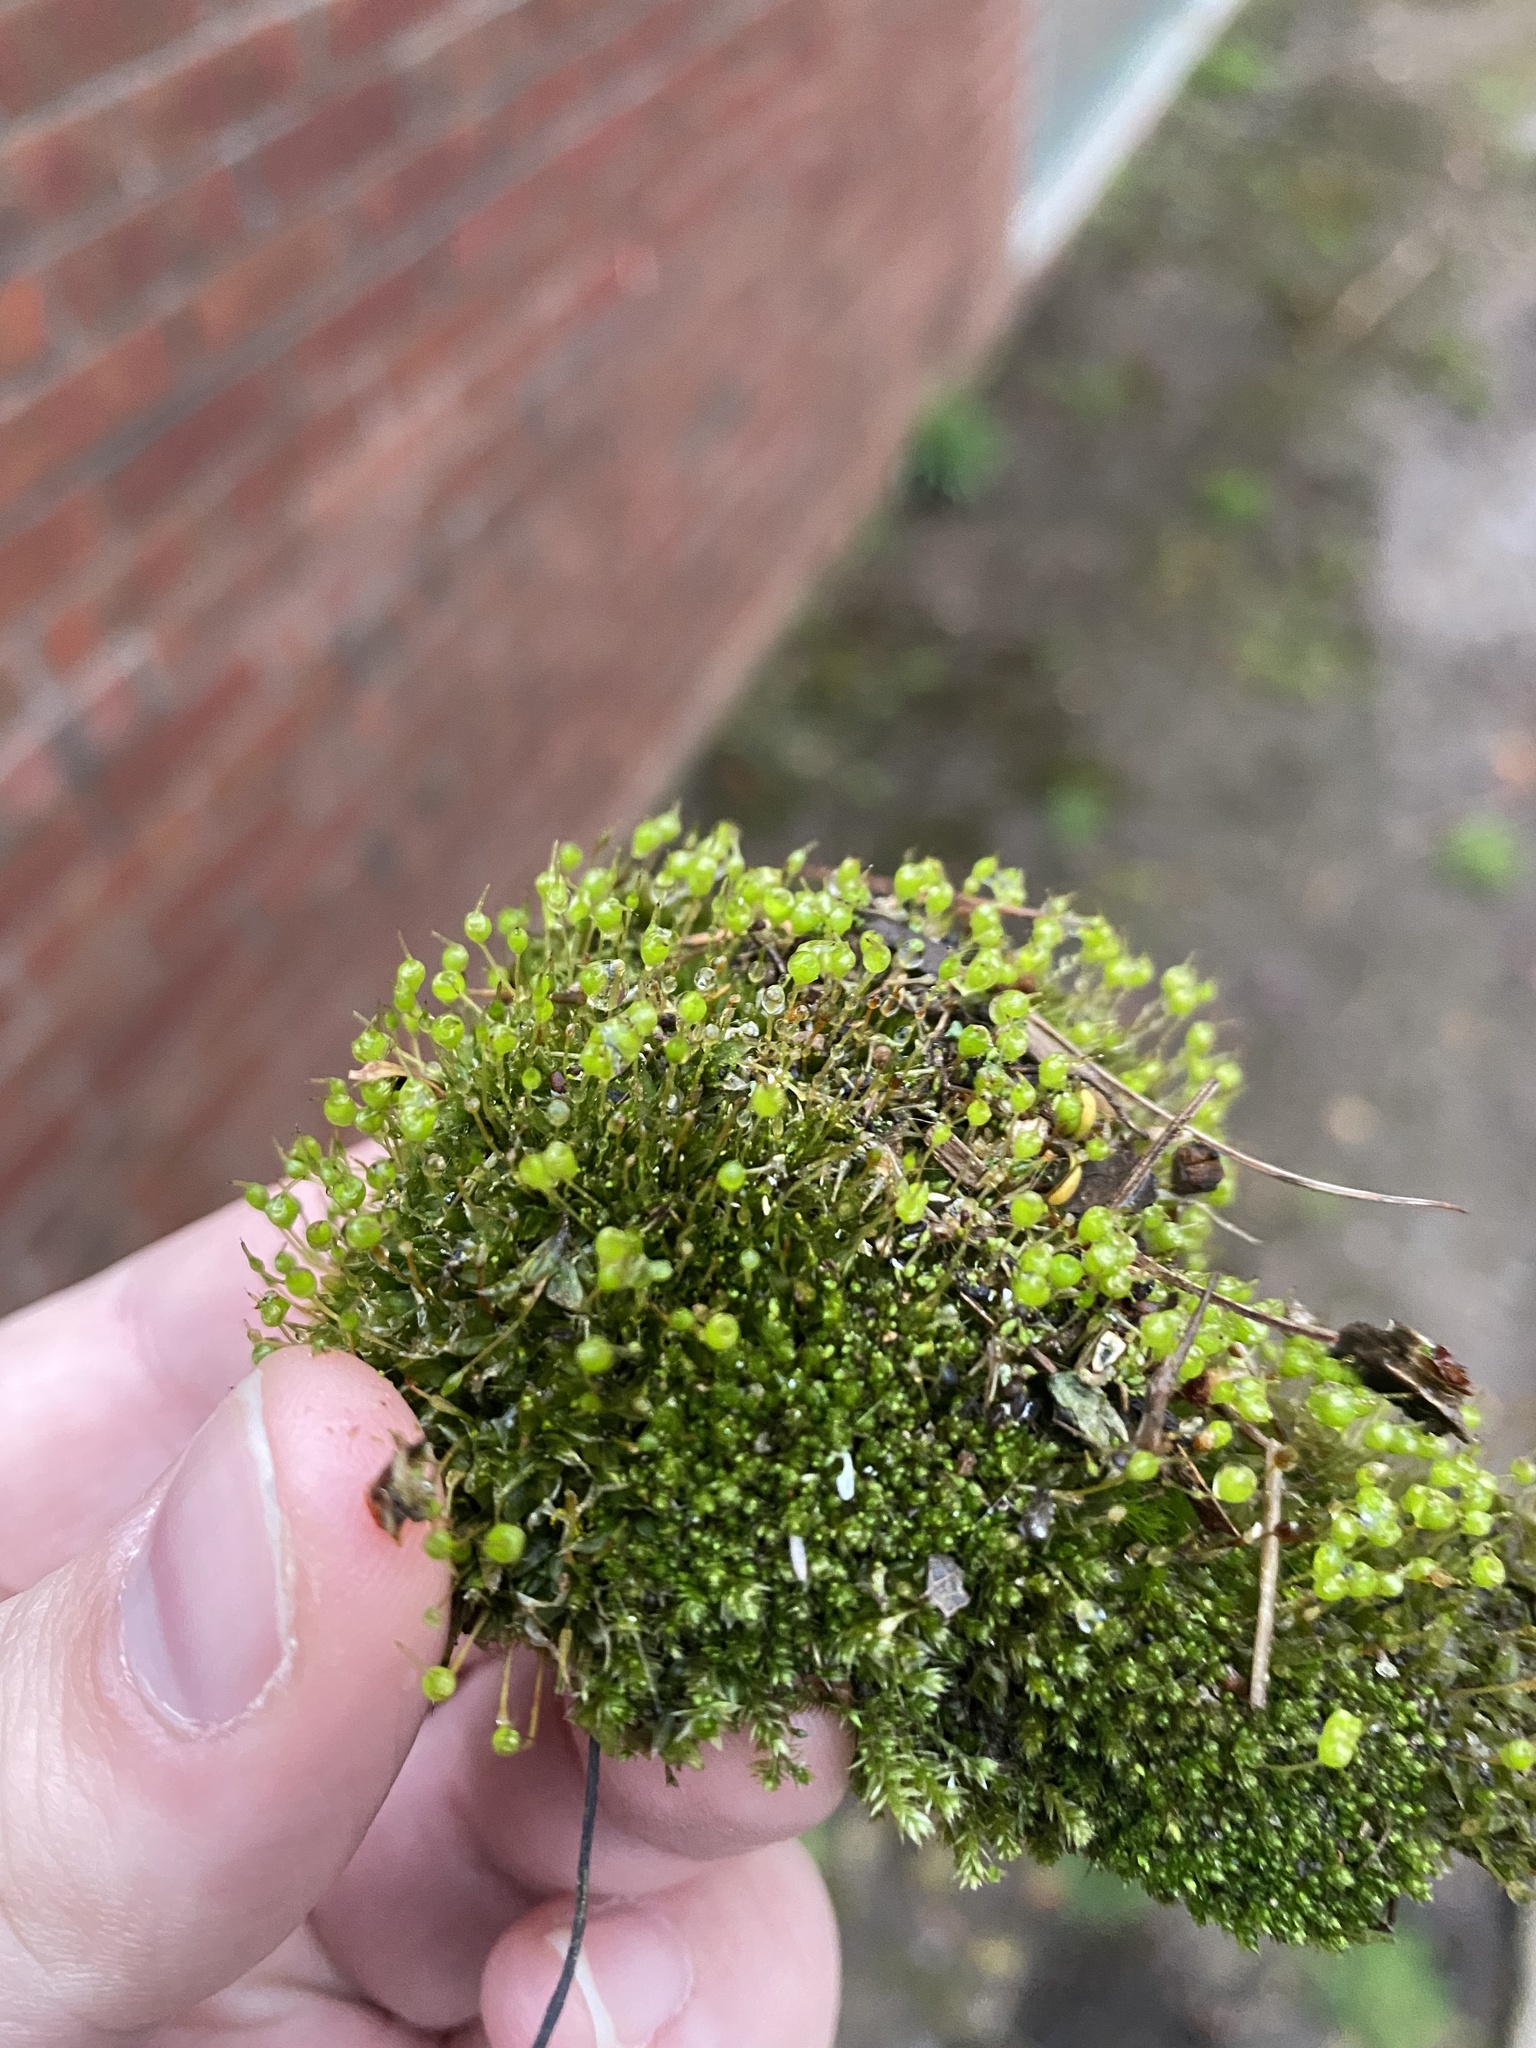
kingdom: Plantae
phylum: Bryophyta
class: Bryopsida
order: Funariales
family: Funariaceae
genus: Physcomitrium
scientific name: Physcomitrium pyriforme
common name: Common bladder-moss
